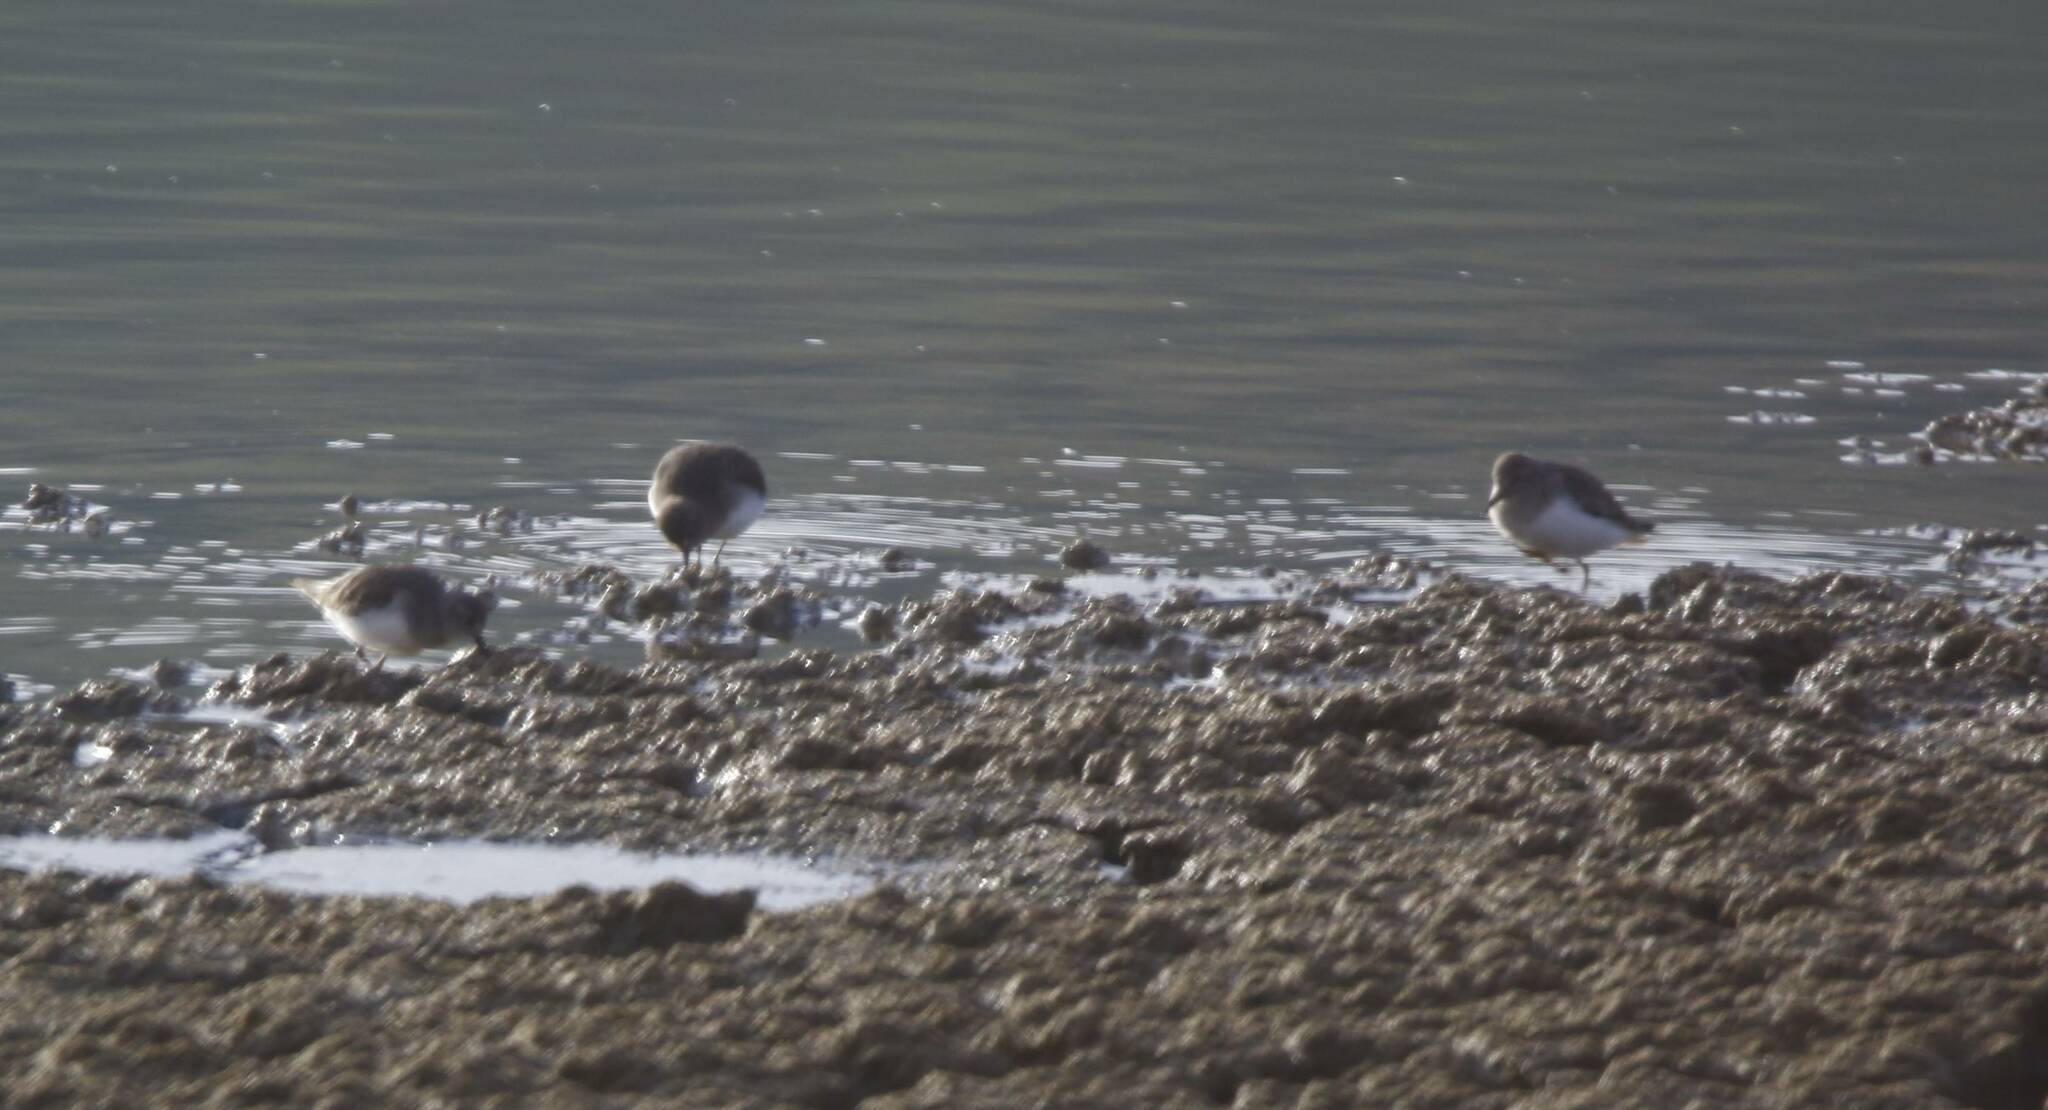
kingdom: Animalia
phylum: Chordata
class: Aves
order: Charadriiformes
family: Scolopacidae
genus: Calidris
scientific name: Calidris temminckii
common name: Temminck's stint
